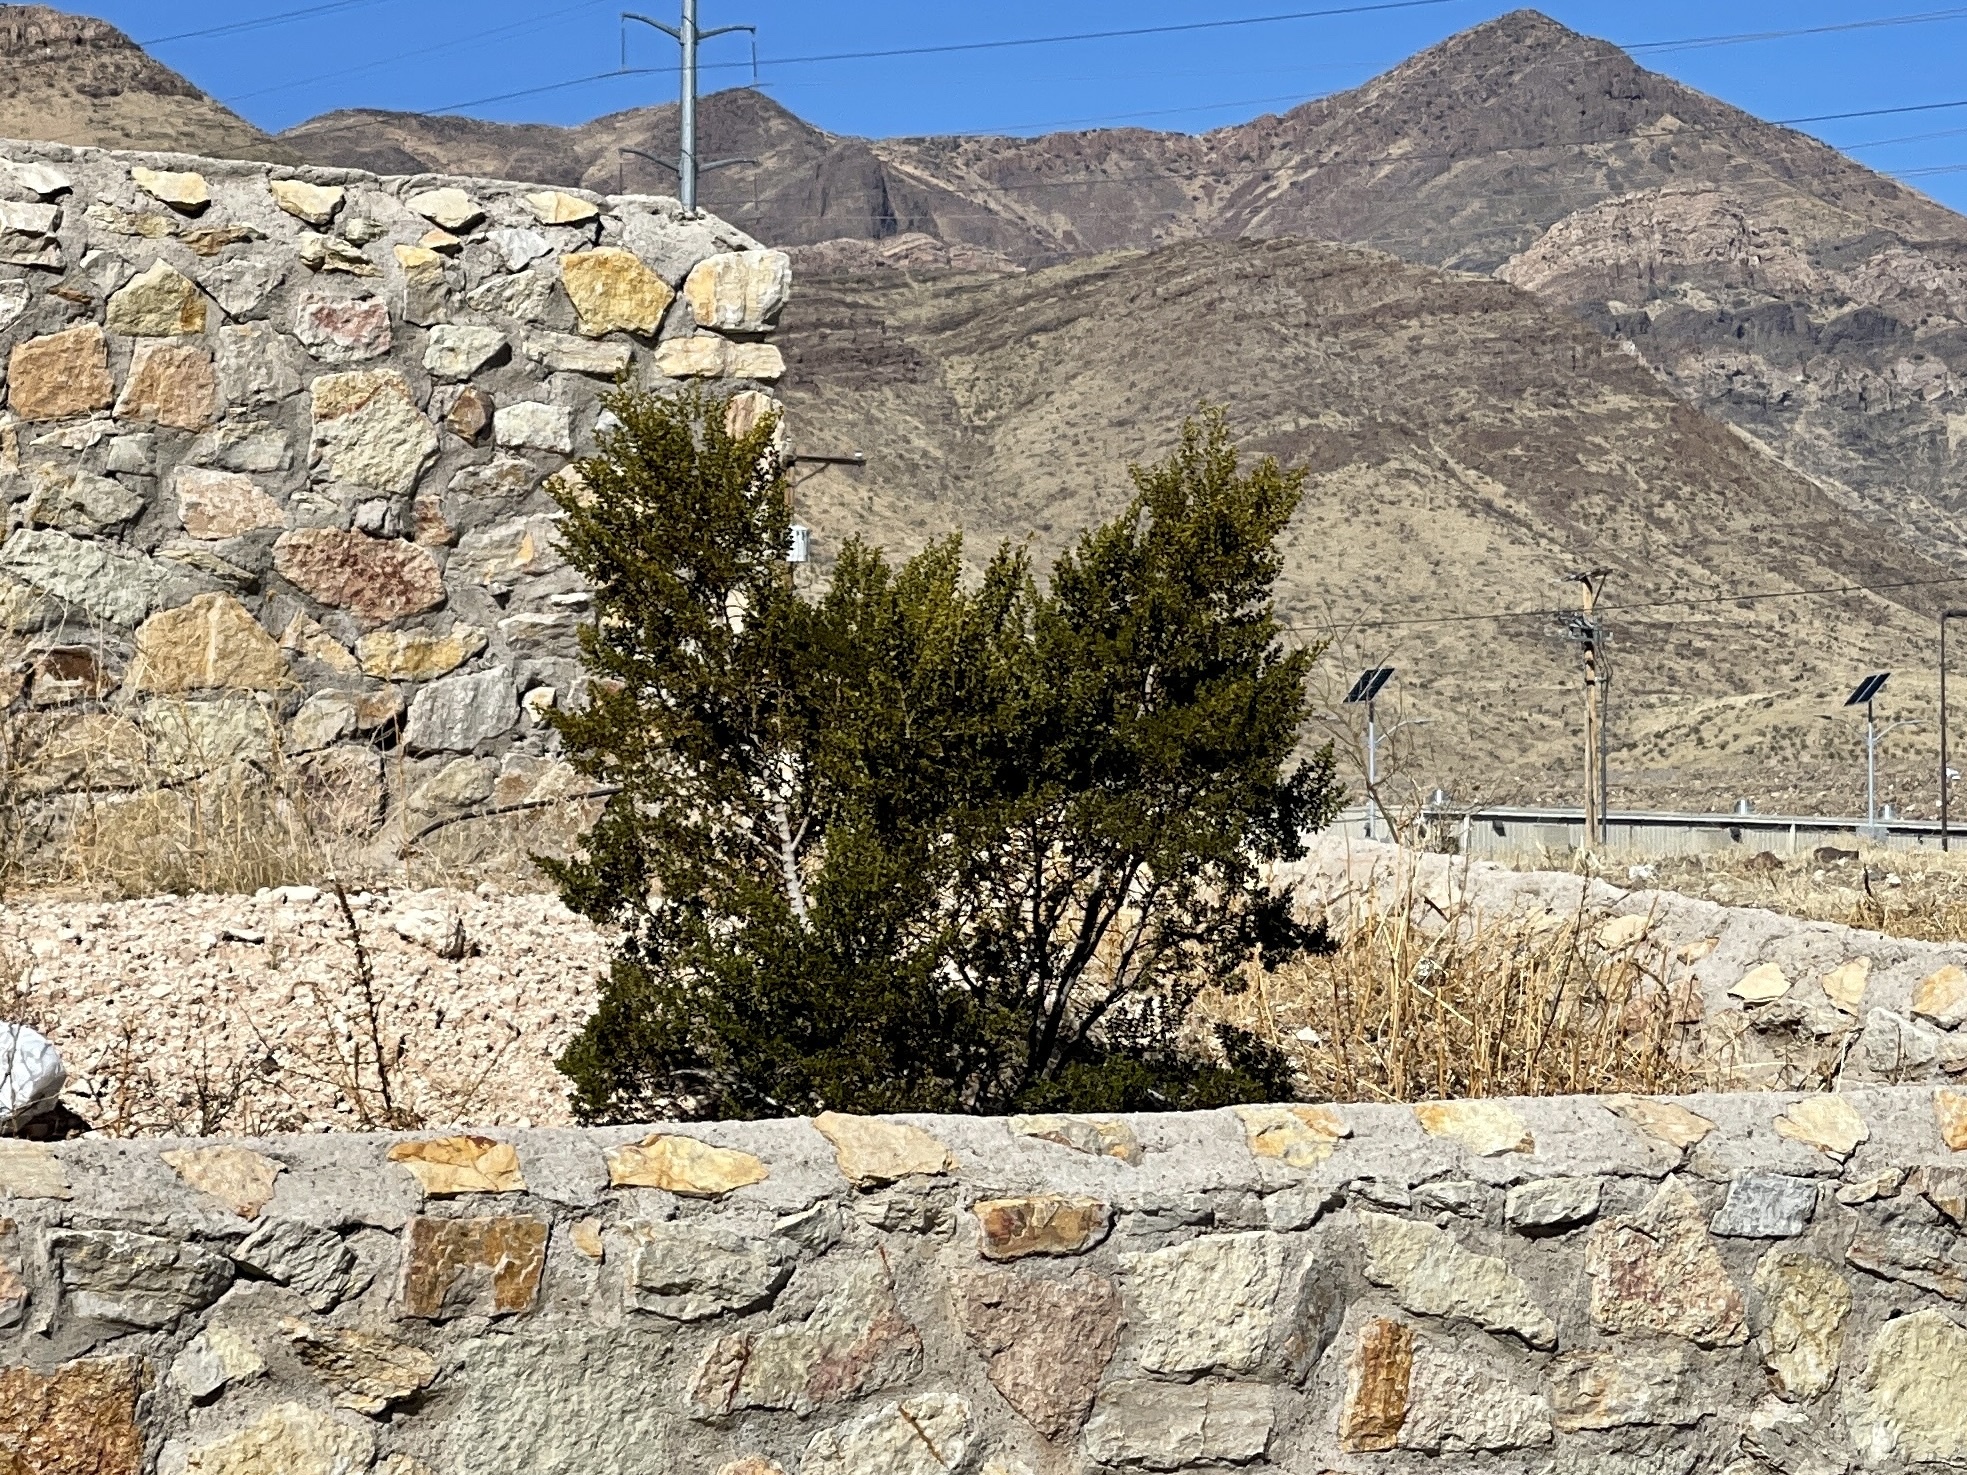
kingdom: Plantae
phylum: Tracheophyta
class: Magnoliopsida
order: Zygophyllales
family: Zygophyllaceae
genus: Larrea
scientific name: Larrea tridentata
